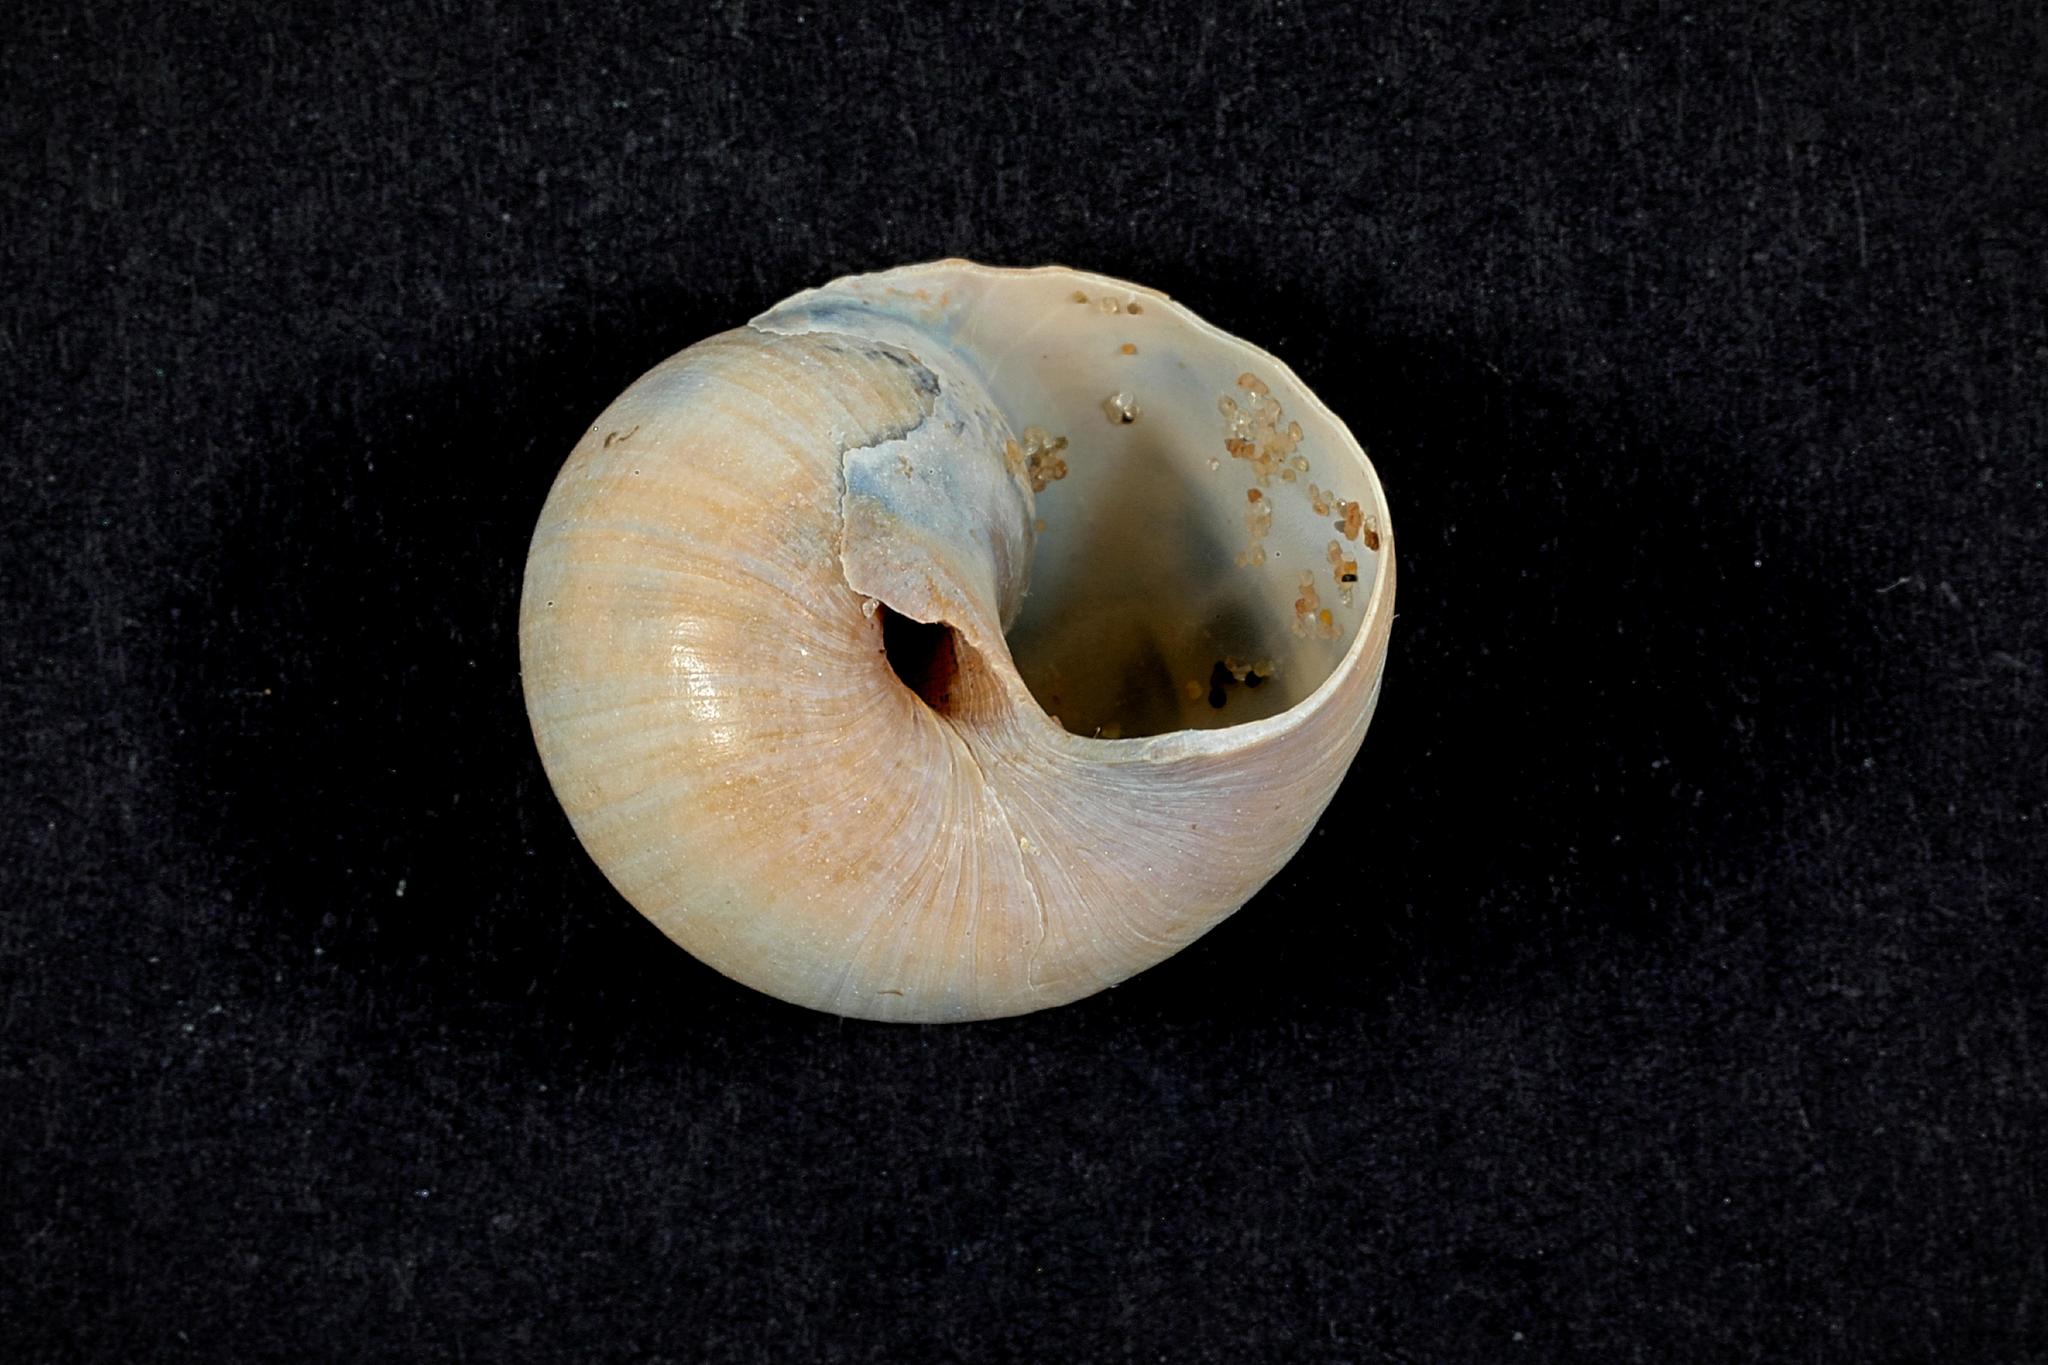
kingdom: Animalia
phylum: Mollusca
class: Gastropoda
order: Littorinimorpha
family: Naticidae
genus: Euspira
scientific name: Euspira nitida
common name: Alder's necklace shell
